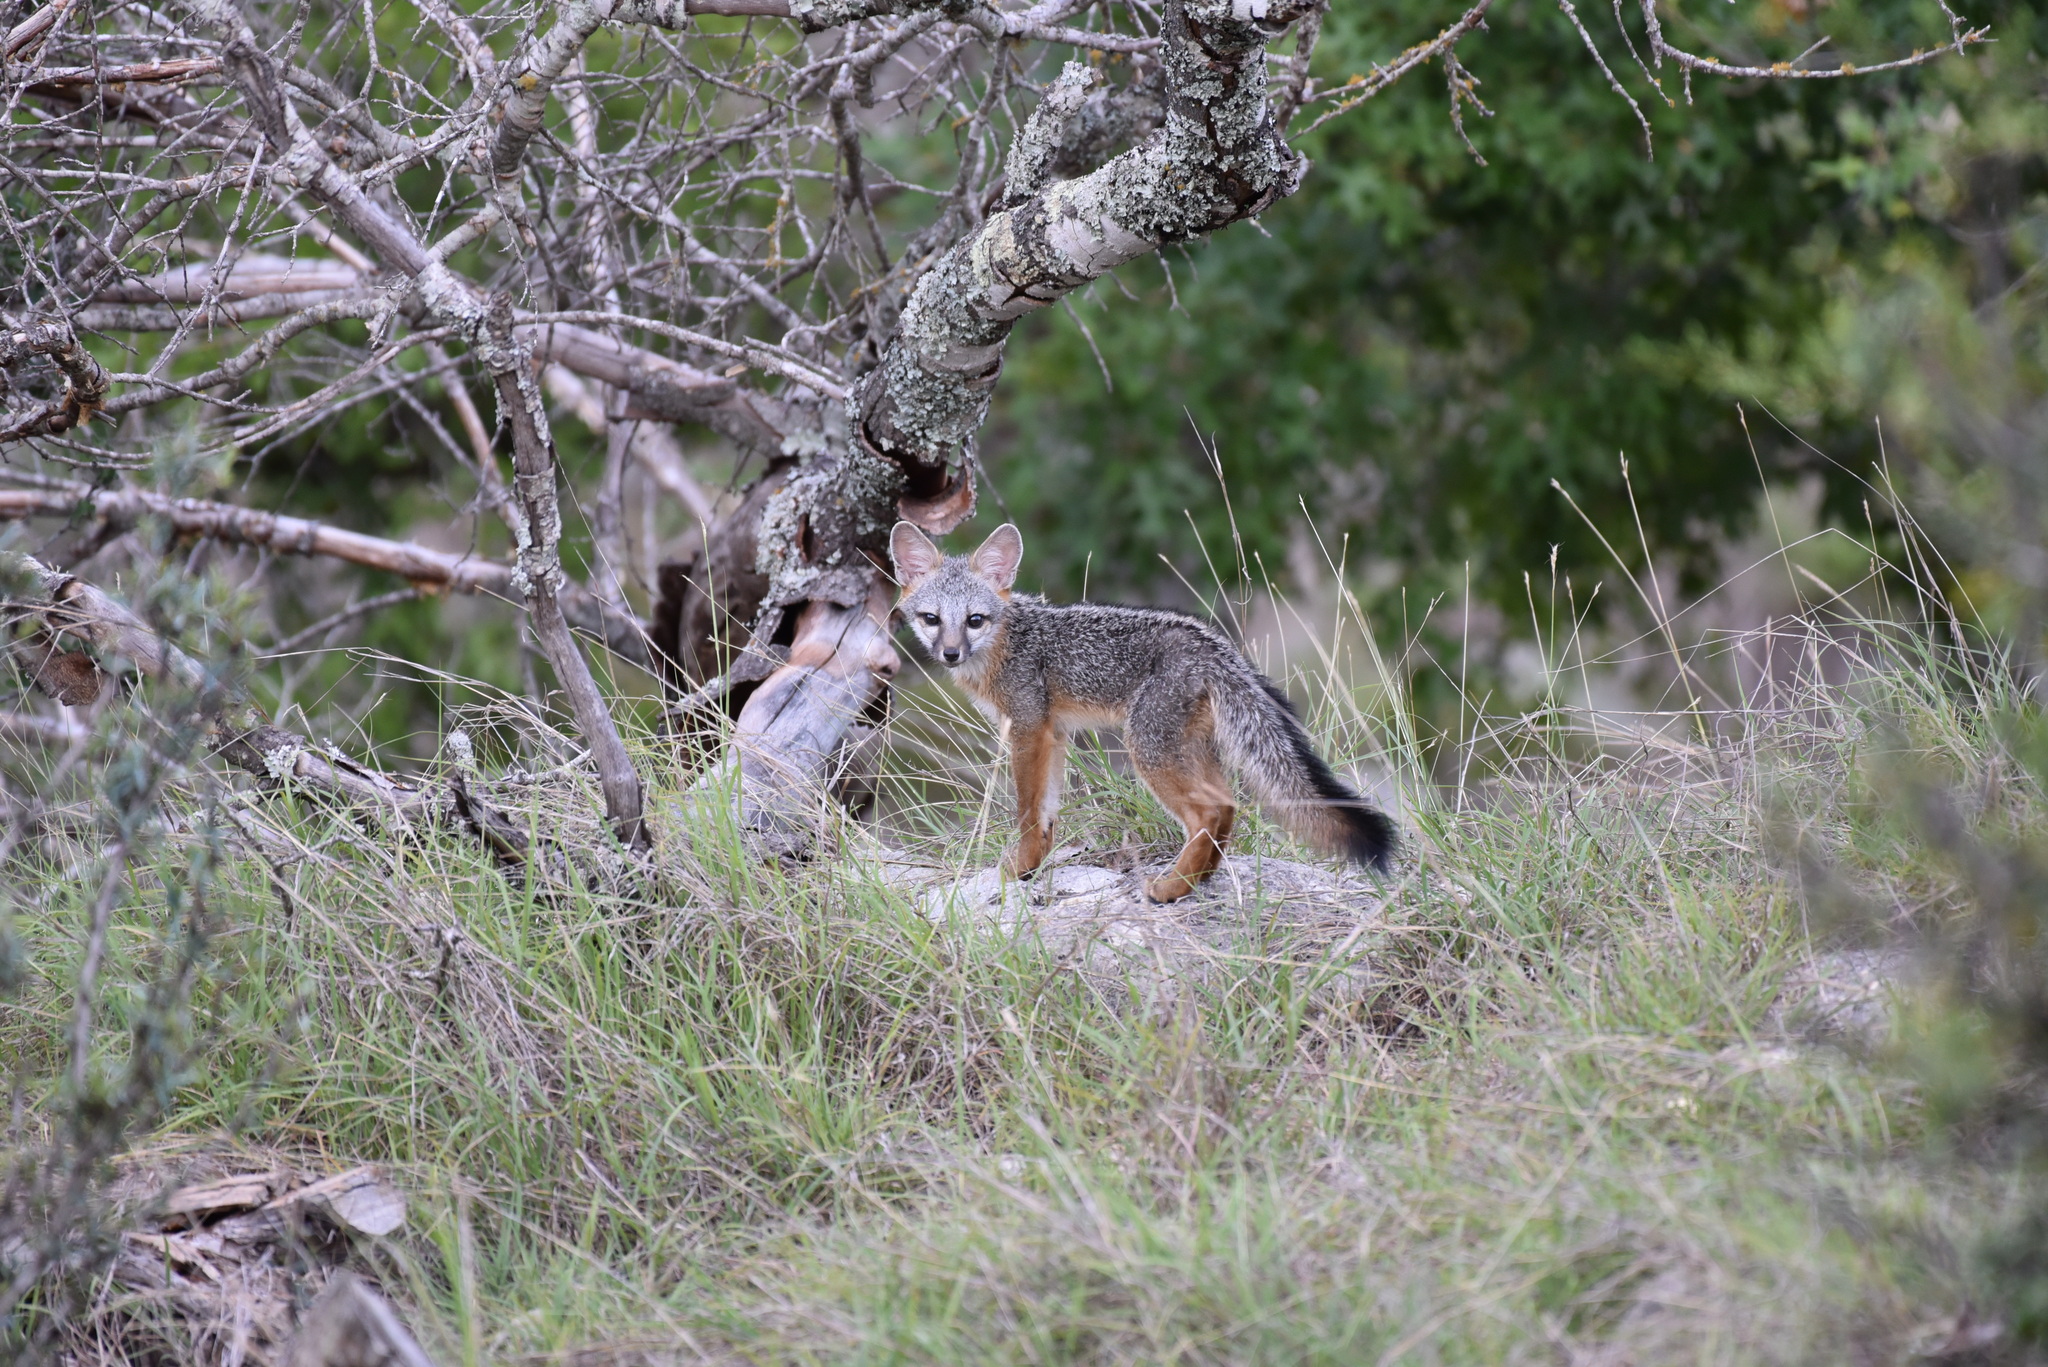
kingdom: Animalia
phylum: Chordata
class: Mammalia
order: Carnivora
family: Canidae
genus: Urocyon
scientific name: Urocyon cinereoargenteus
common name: Gray fox
